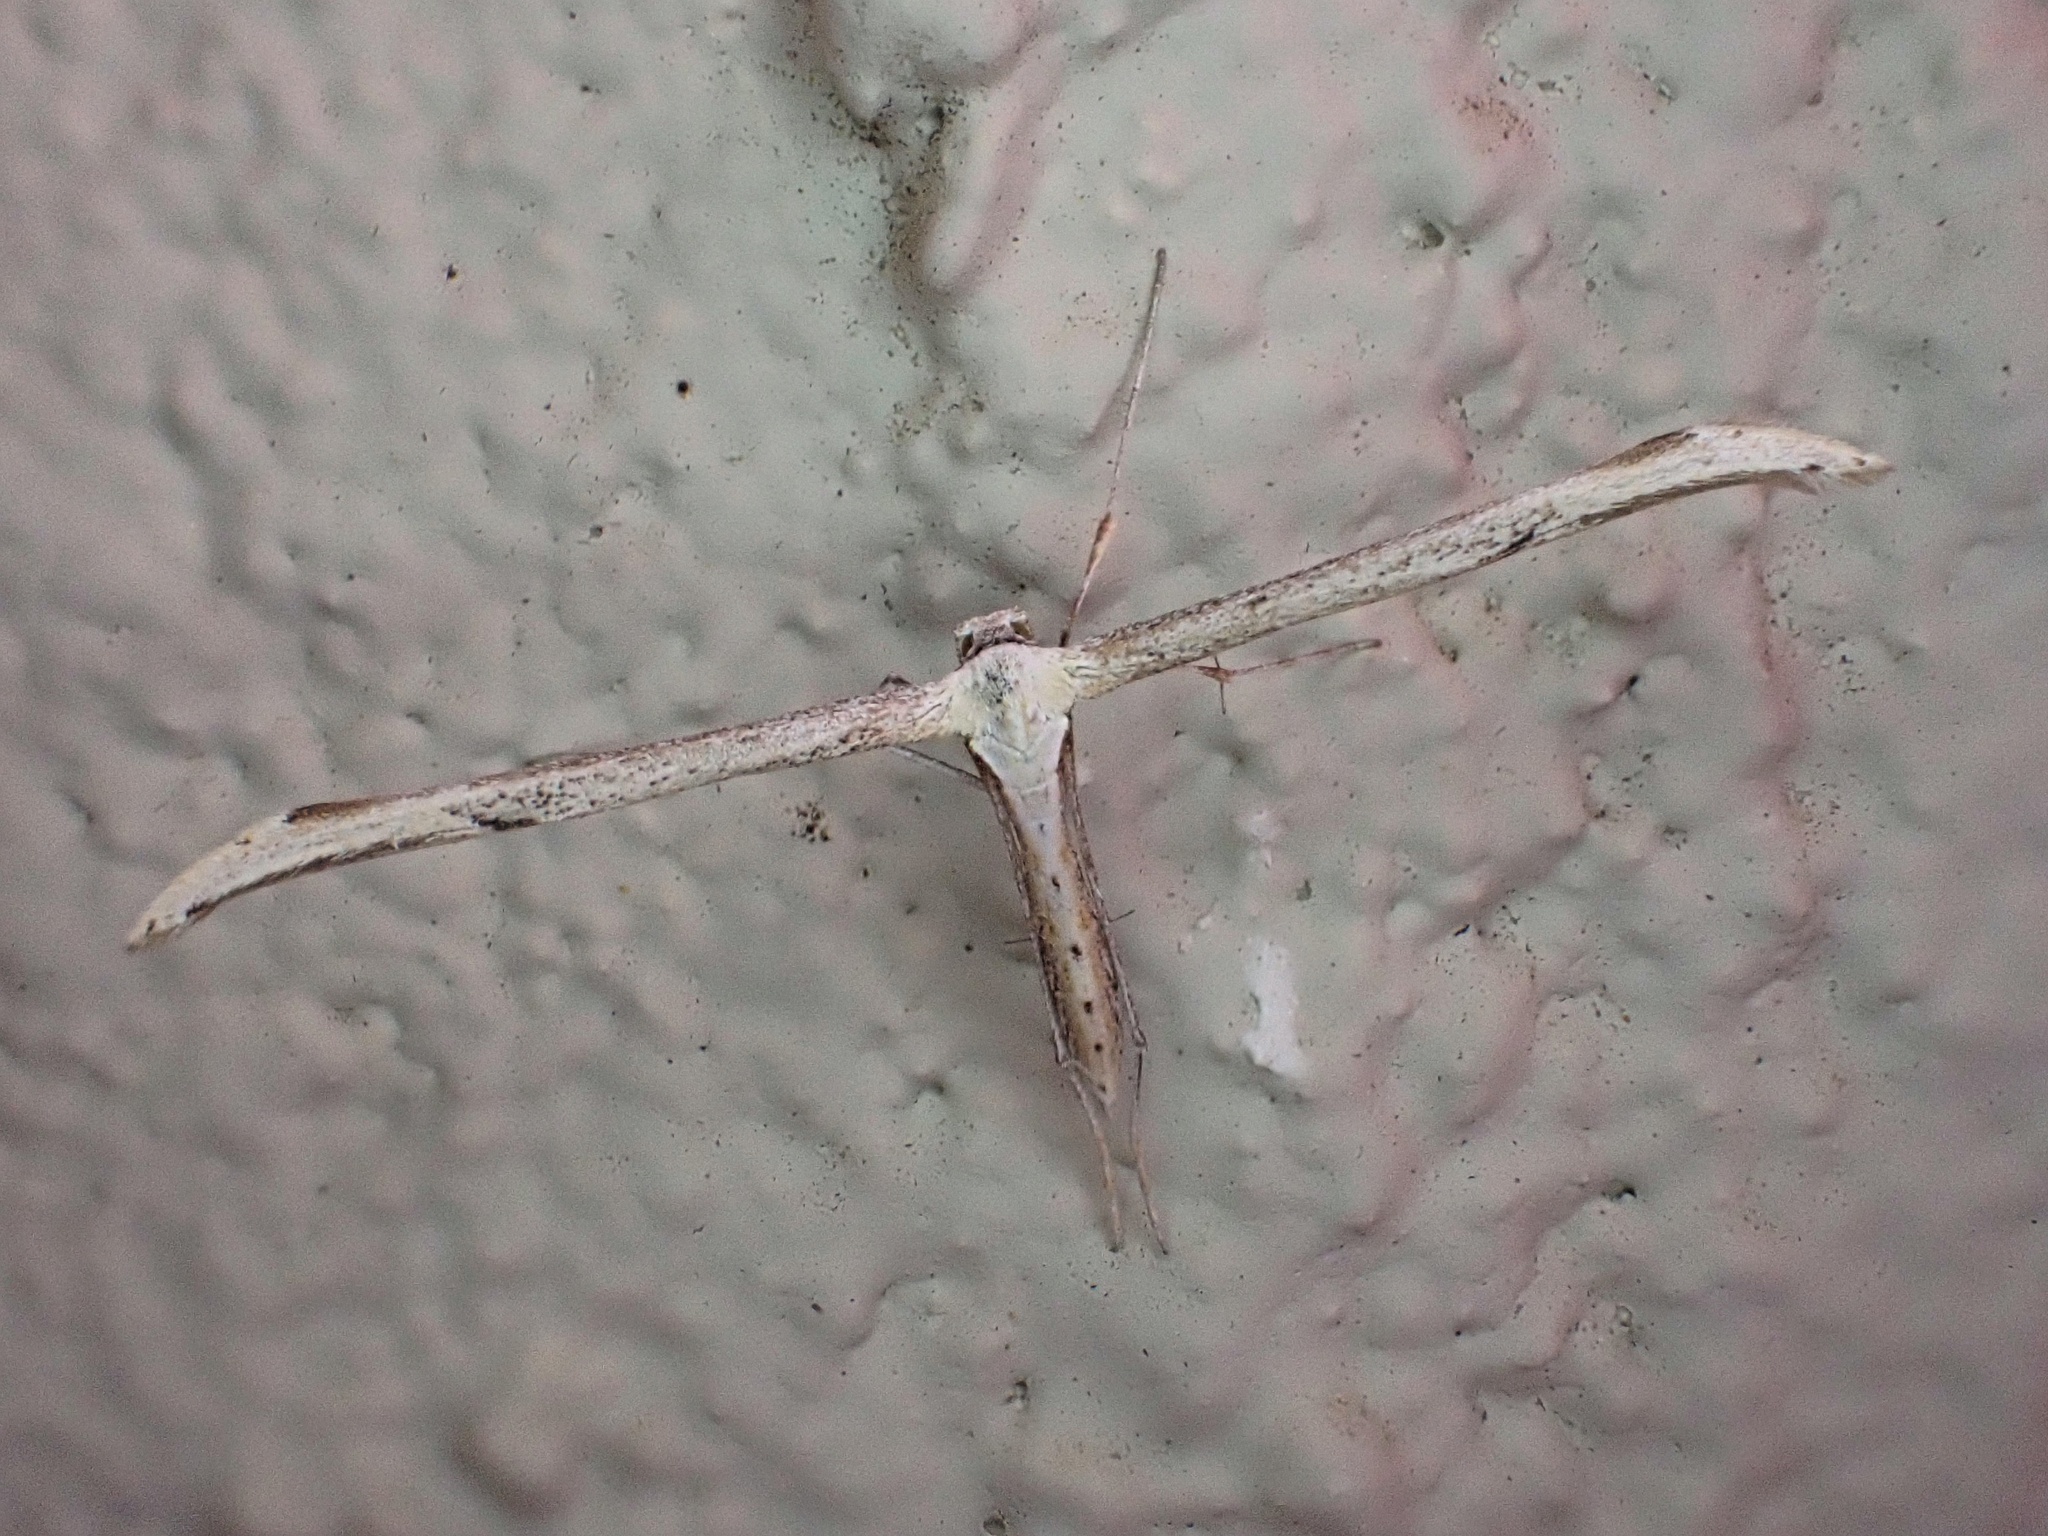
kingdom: Animalia
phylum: Arthropoda
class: Insecta
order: Lepidoptera
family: Pterophoridae
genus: Emmelina
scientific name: Emmelina monodactyla
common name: Common plume
